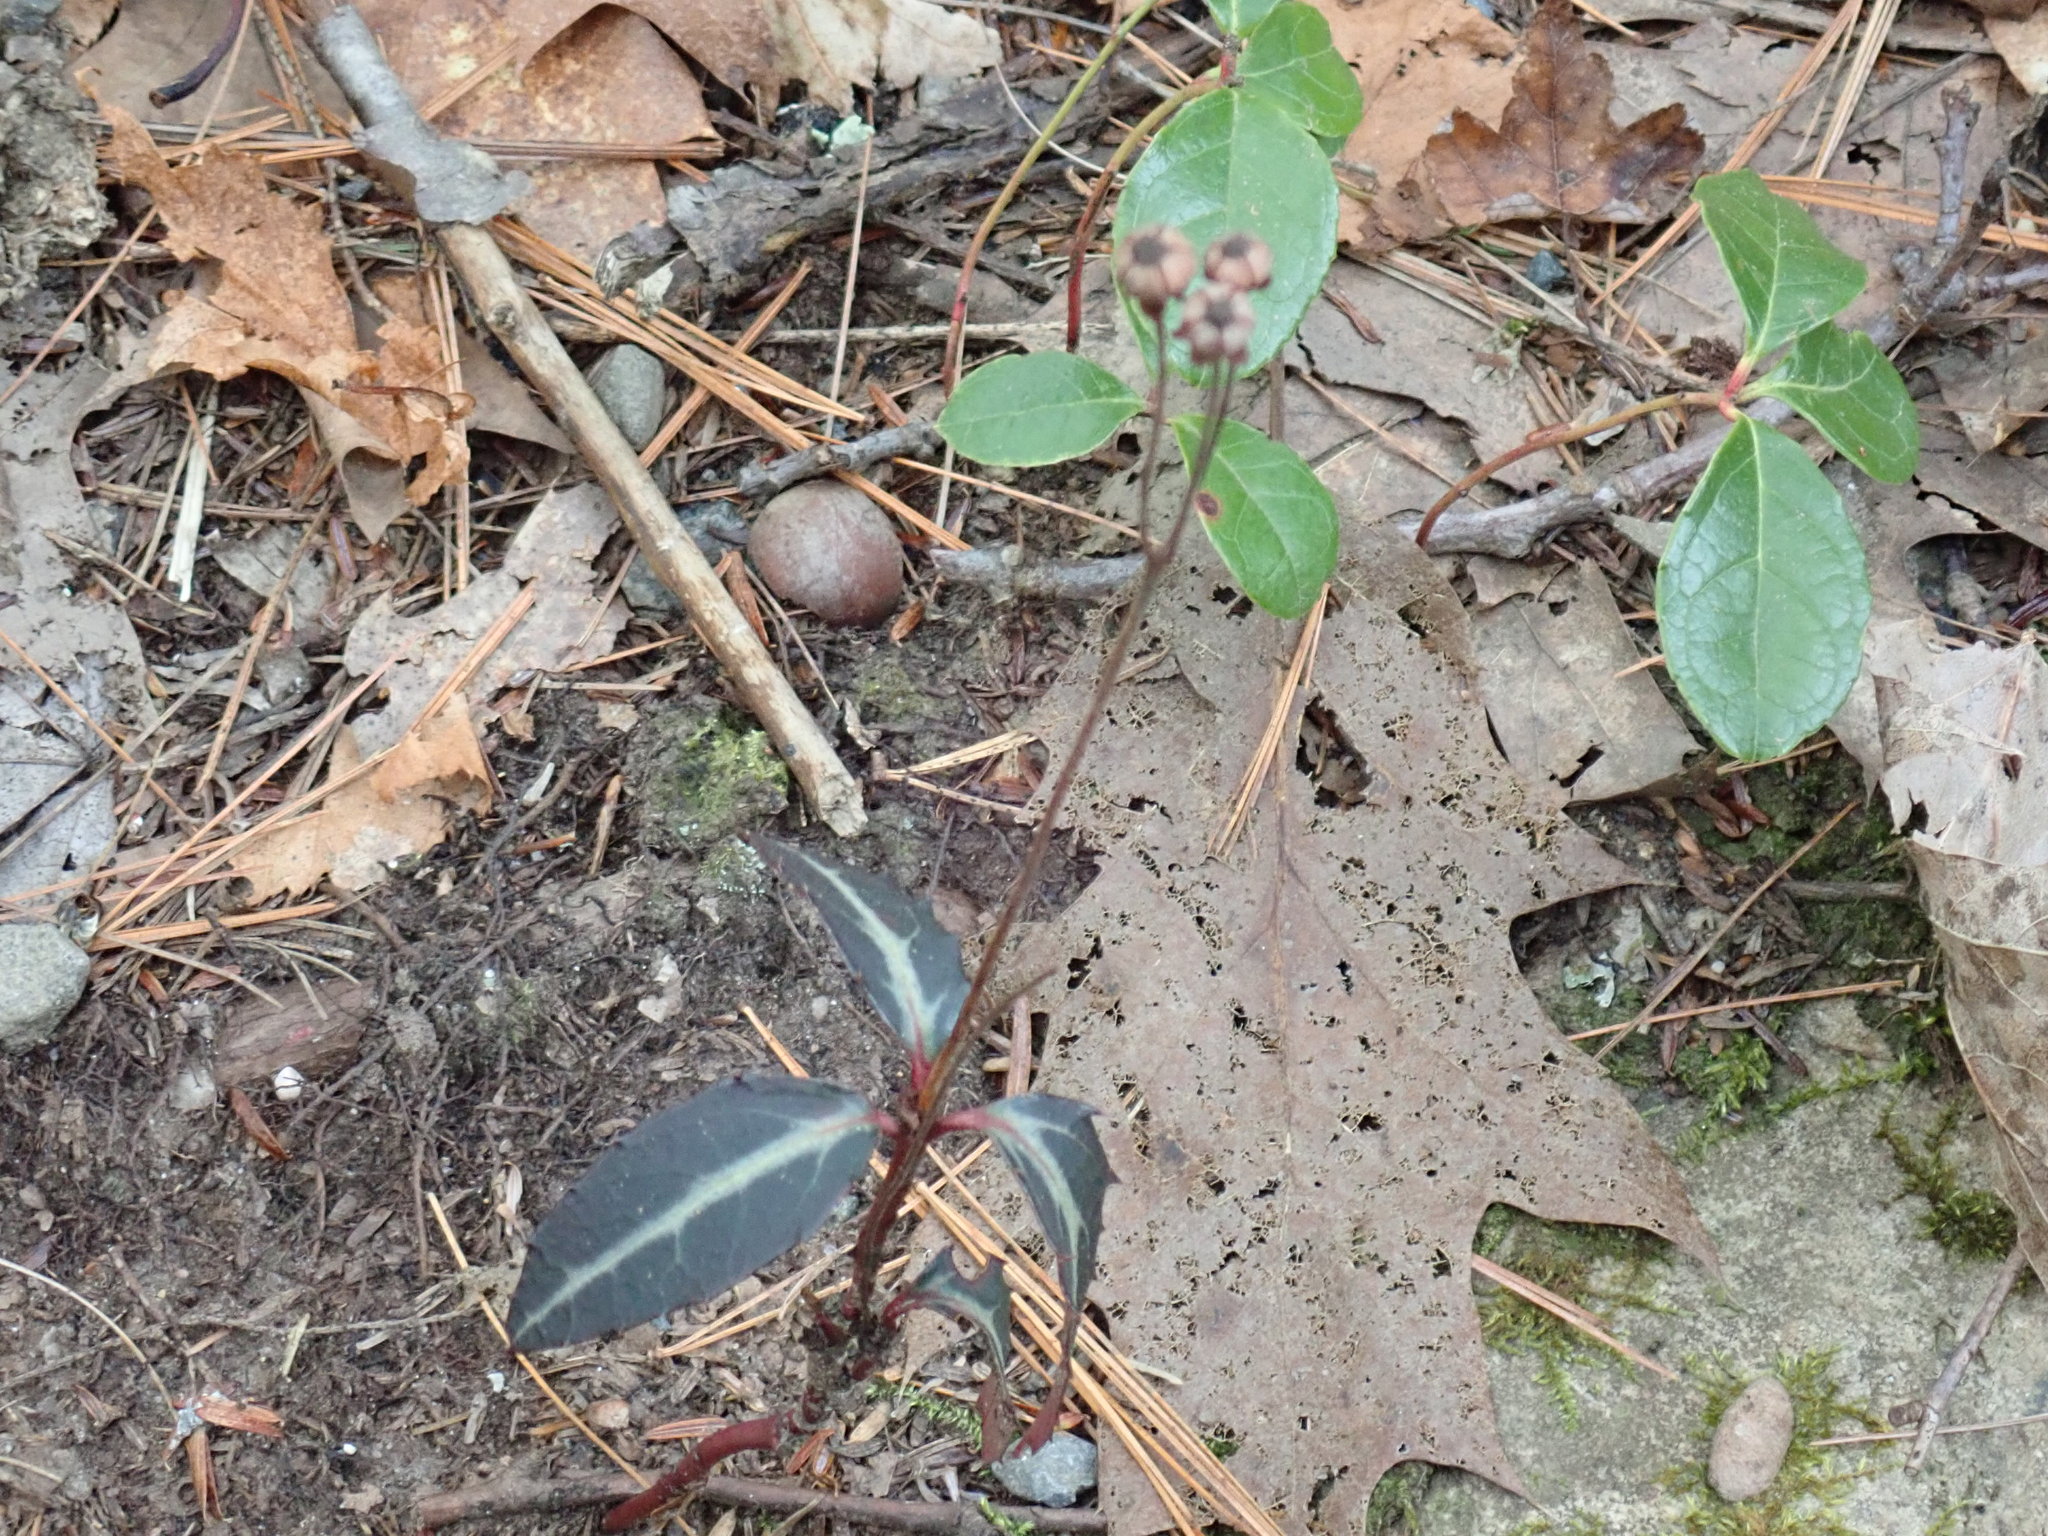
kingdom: Plantae
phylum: Tracheophyta
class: Magnoliopsida
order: Ericales
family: Ericaceae
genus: Chimaphila
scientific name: Chimaphila maculata
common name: Spotted pipsissewa
